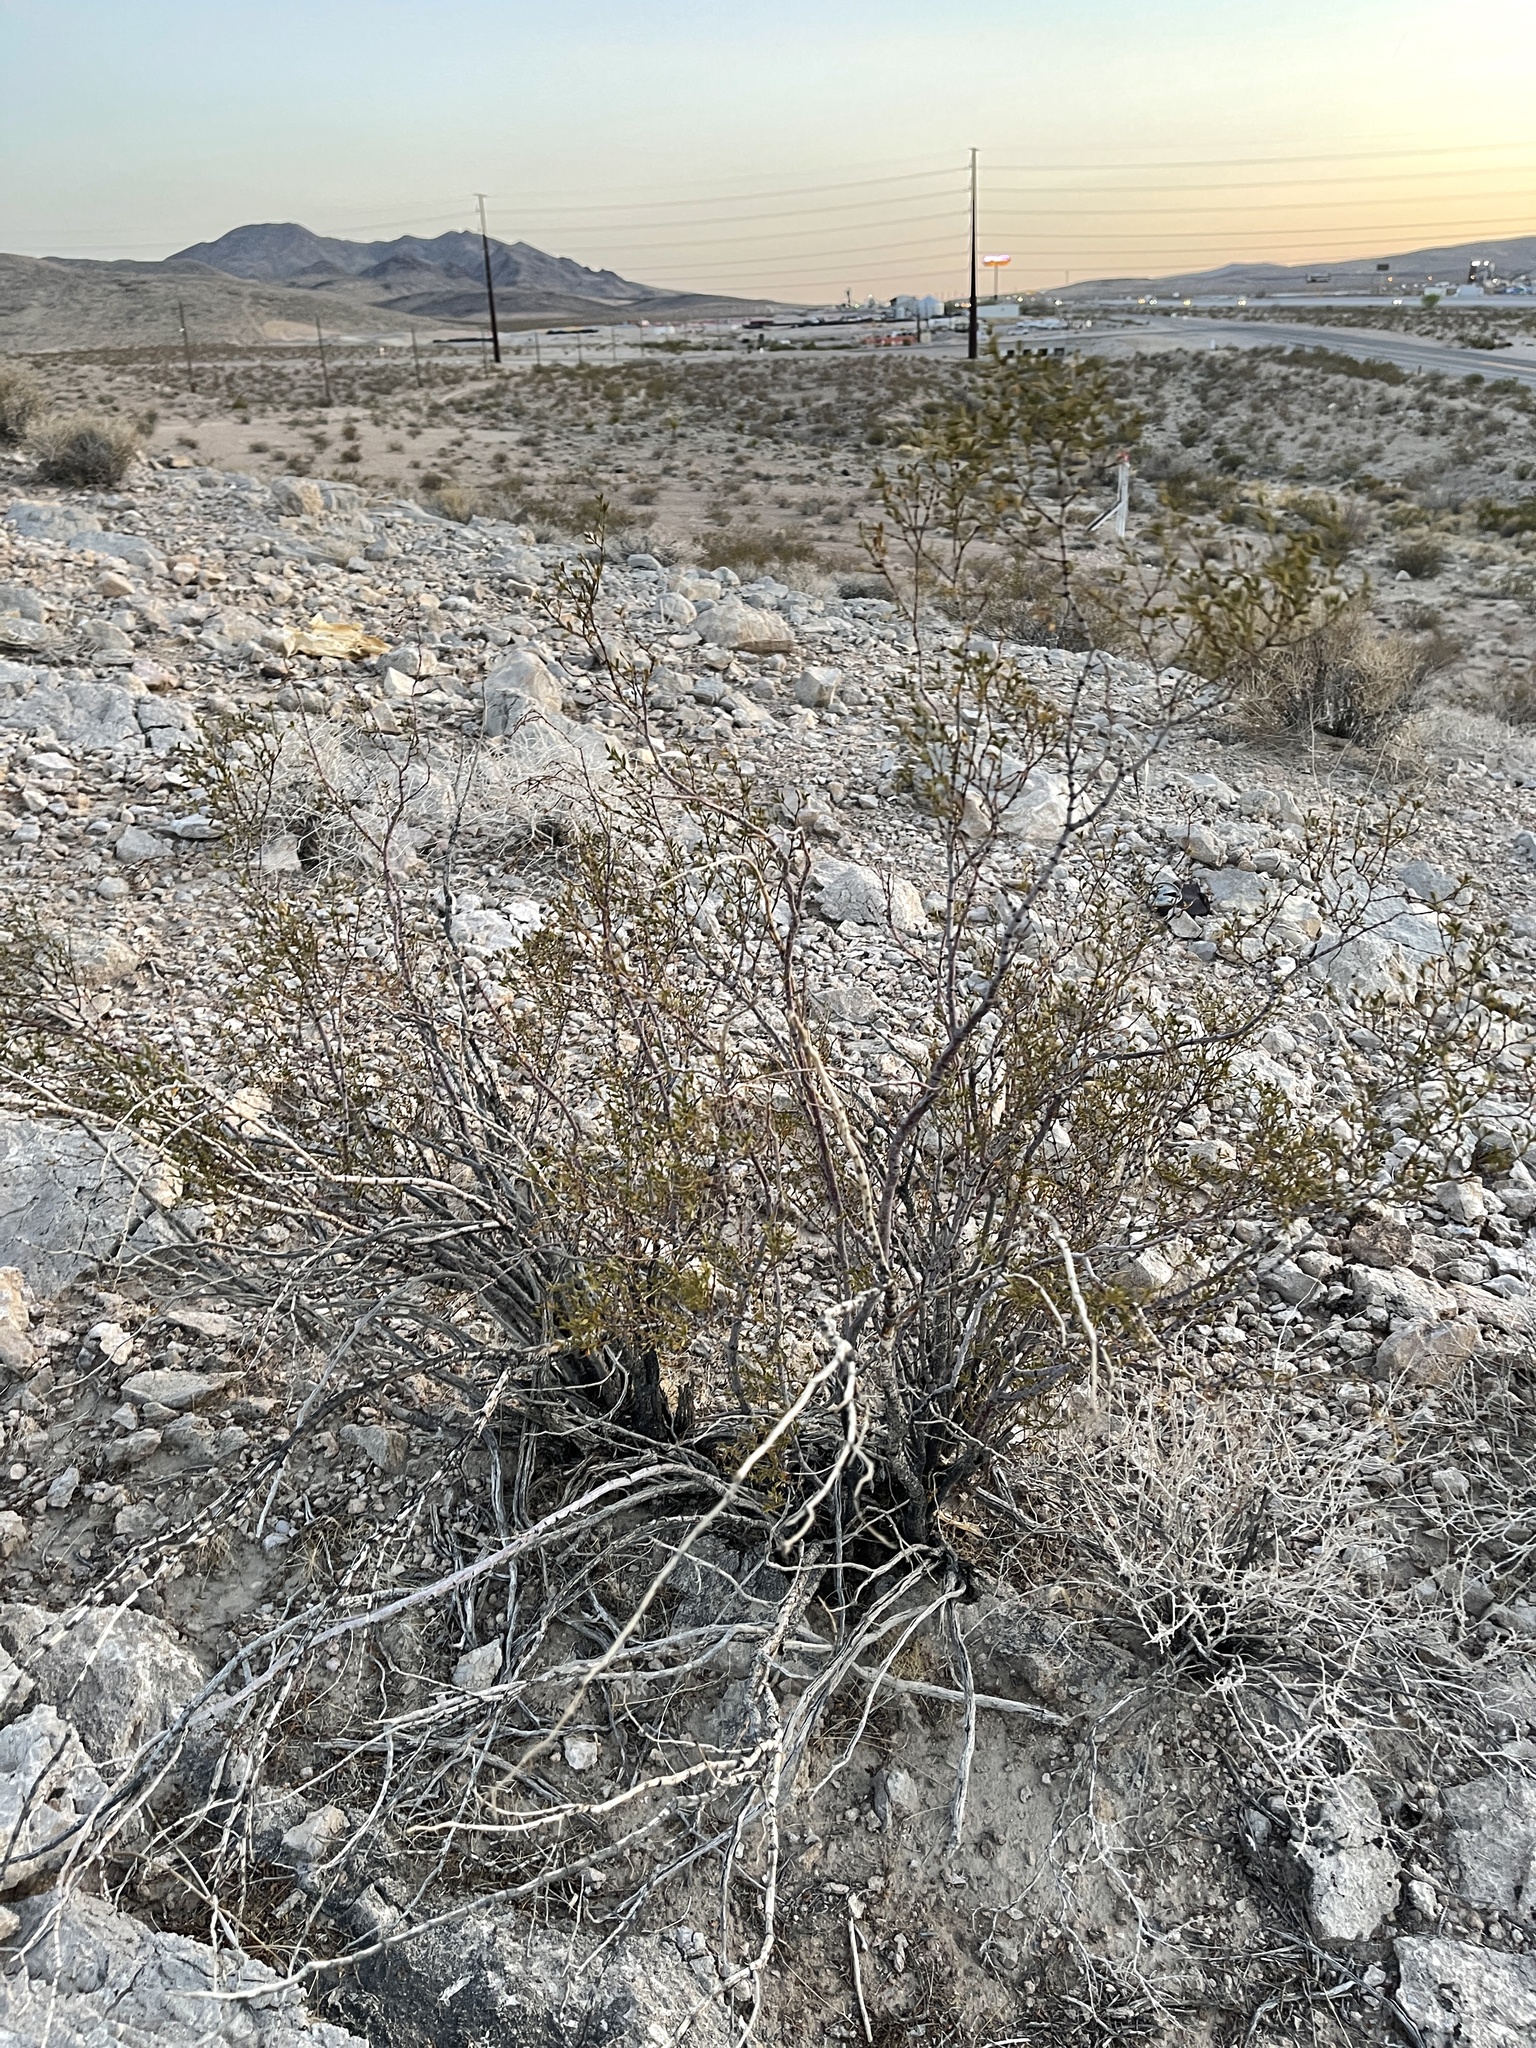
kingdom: Plantae
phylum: Tracheophyta
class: Magnoliopsida
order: Zygophyllales
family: Zygophyllaceae
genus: Larrea
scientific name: Larrea tridentata
